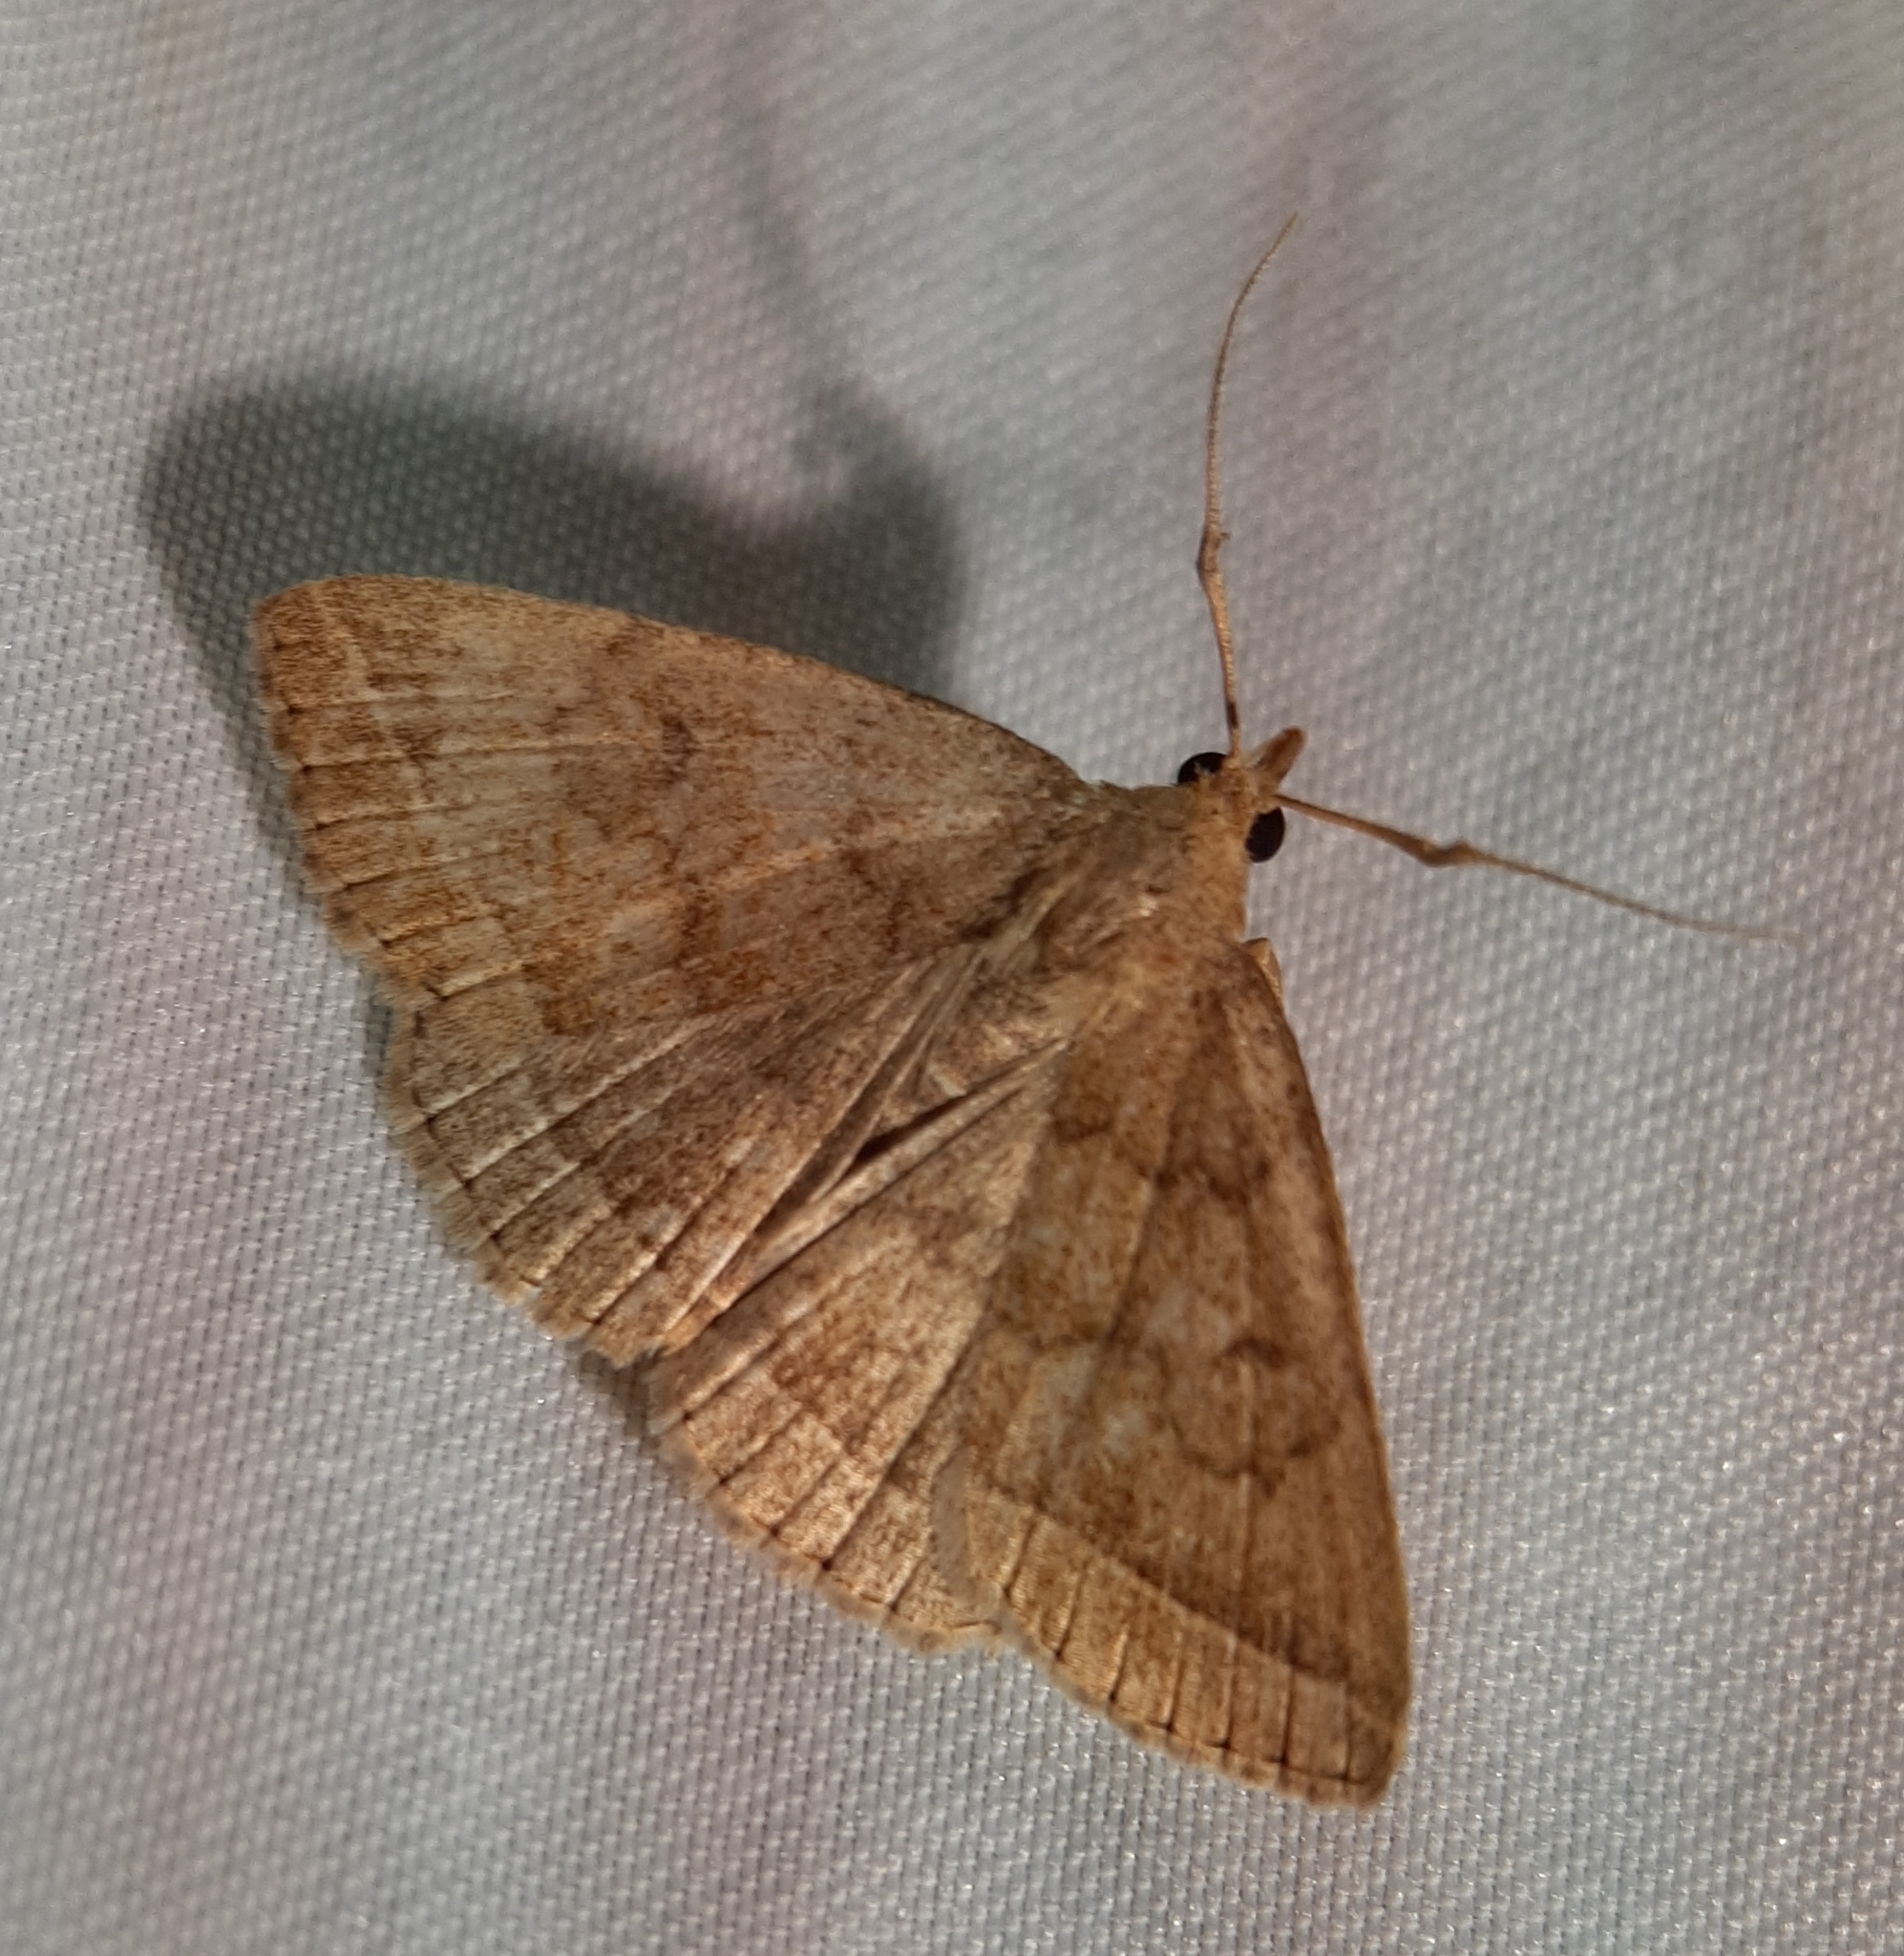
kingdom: Animalia
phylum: Arthropoda
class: Insecta
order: Lepidoptera
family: Erebidae
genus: Zanclognatha
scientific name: Zanclognatha jacchusalis
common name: Yellowish zanclognatha
